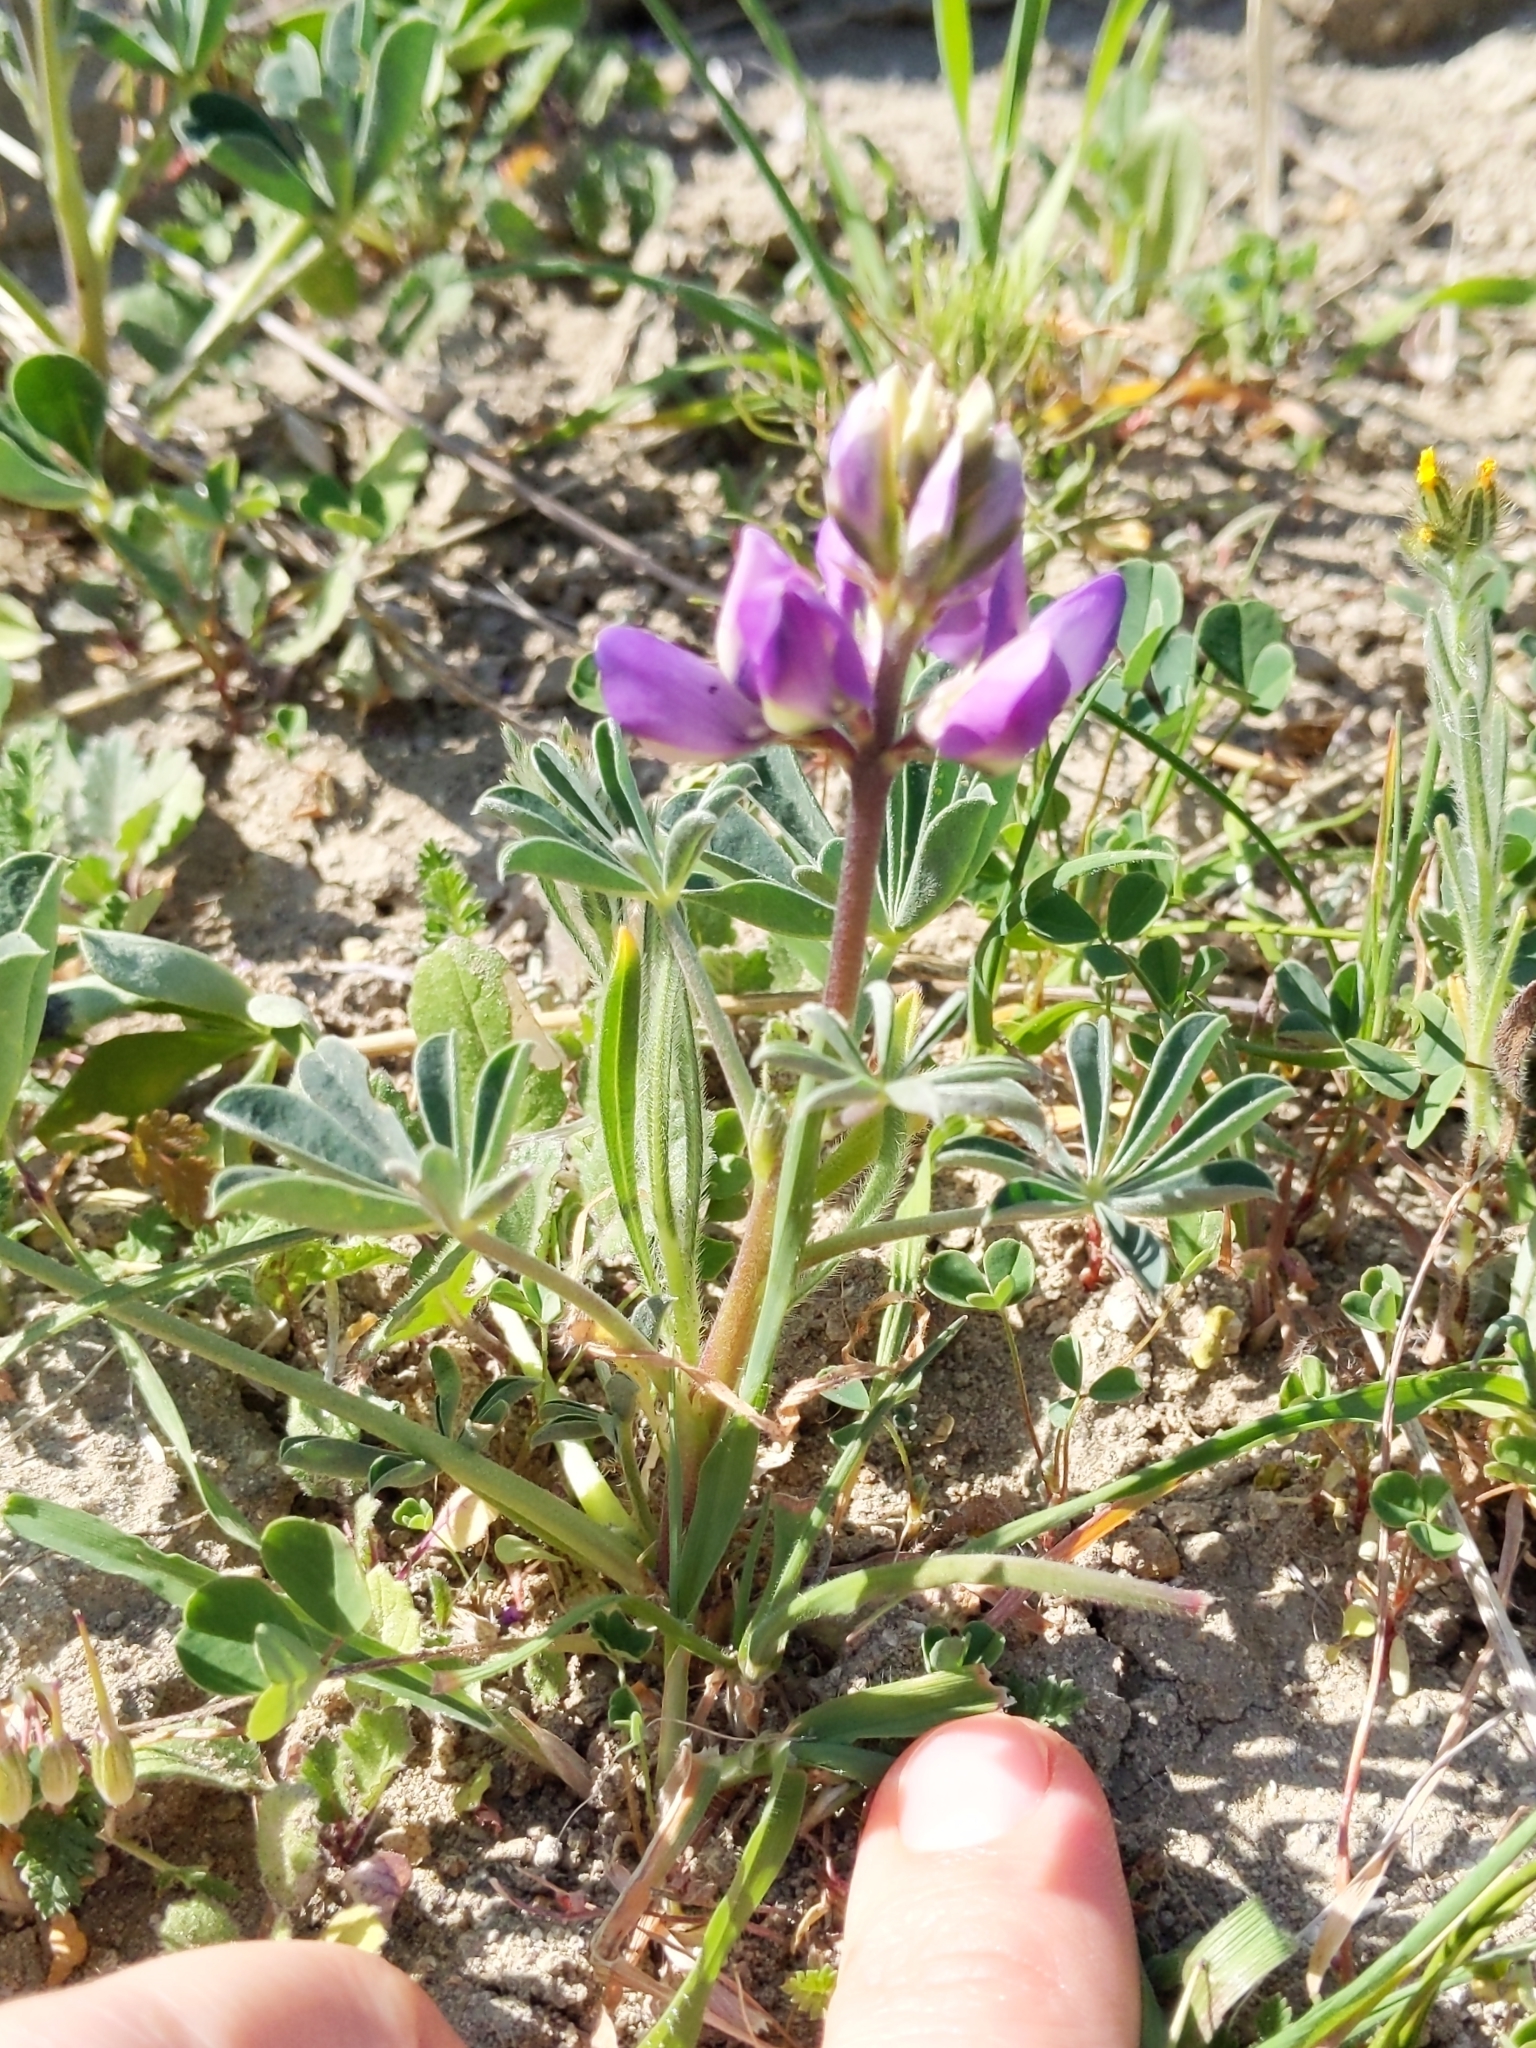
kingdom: Plantae
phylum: Tracheophyta
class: Magnoliopsida
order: Fabales
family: Fabaceae
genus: Lupinus
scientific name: Lupinus succulentus
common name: Arroyo lupine
